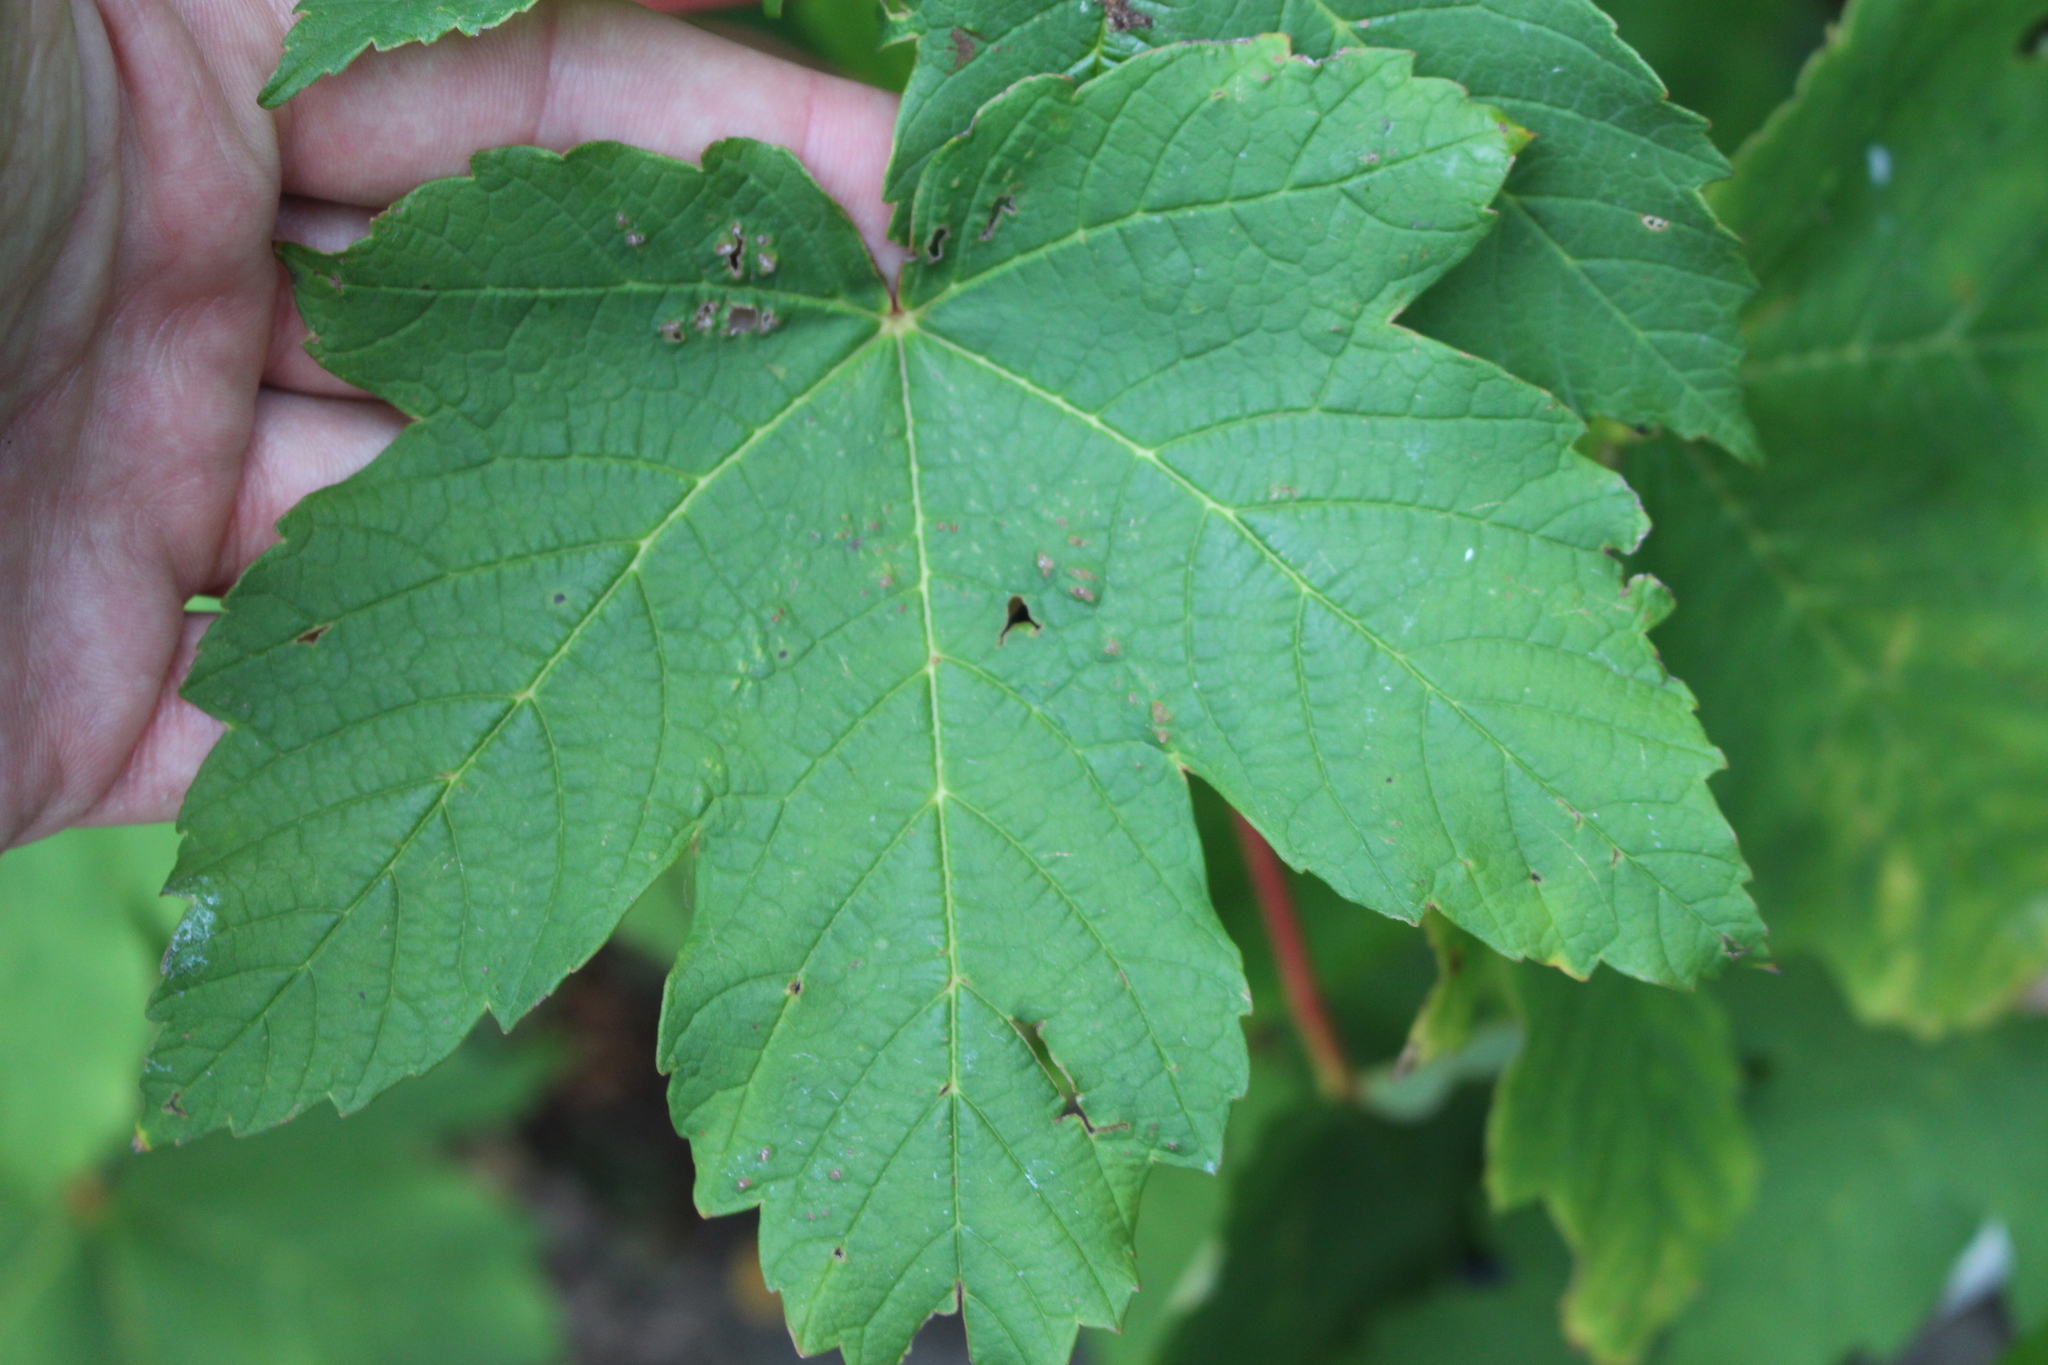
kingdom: Plantae
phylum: Tracheophyta
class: Magnoliopsida
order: Sapindales
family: Sapindaceae
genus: Acer
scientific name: Acer pseudoplatanus
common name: Sycamore
